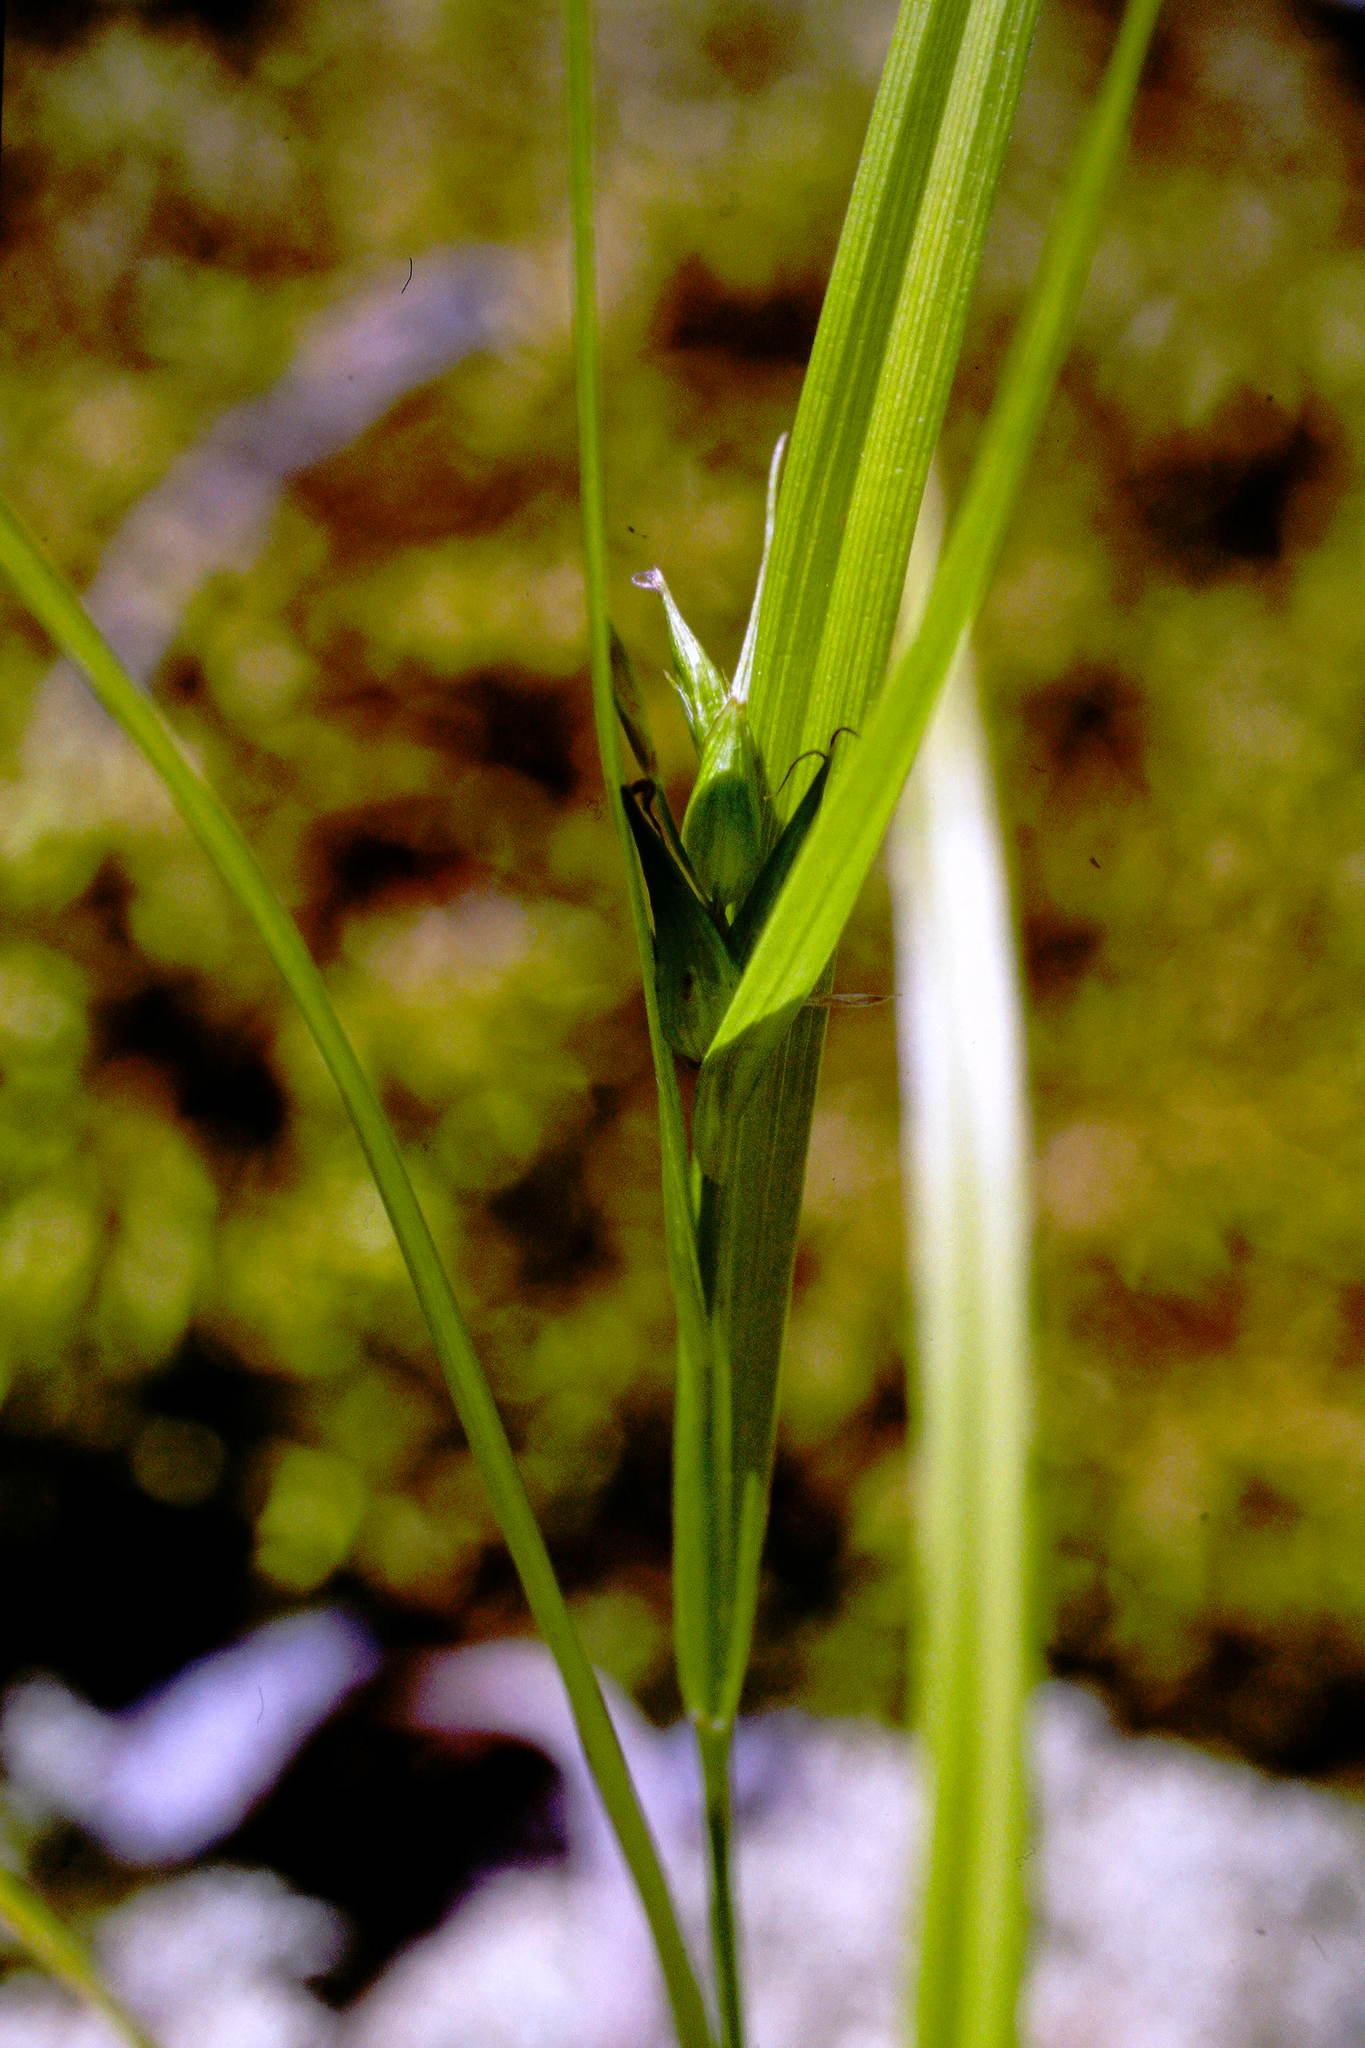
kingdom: Plantae
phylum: Tracheophyta
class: Liliopsida
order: Poales
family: Cyperaceae
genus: Carex
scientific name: Carex backii
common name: Back's sedge
